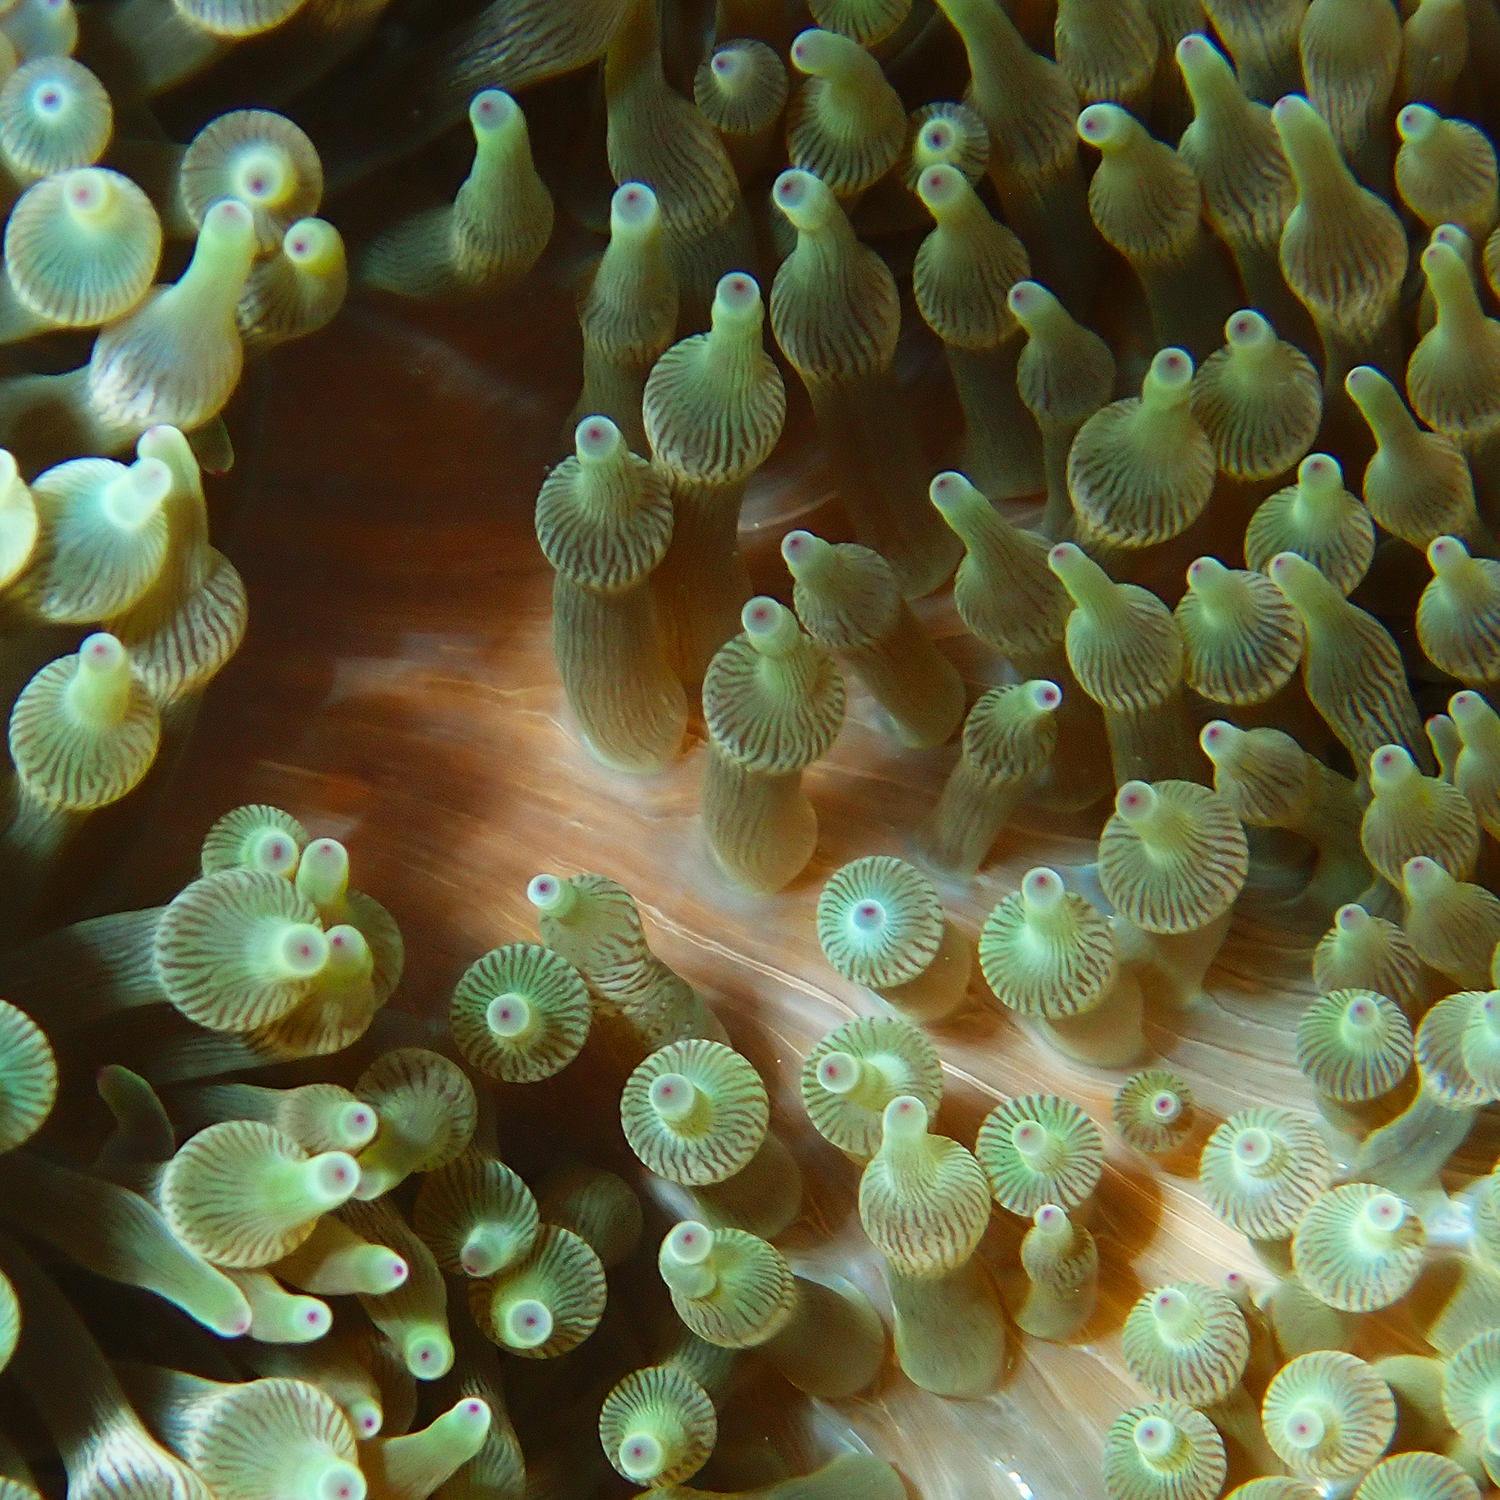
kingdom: Animalia
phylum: Cnidaria
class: Anthozoa
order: Actiniaria
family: Actiniidae
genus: Entacmaea
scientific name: Entacmaea quadricolor
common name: Bulb tentacle sea anemone
